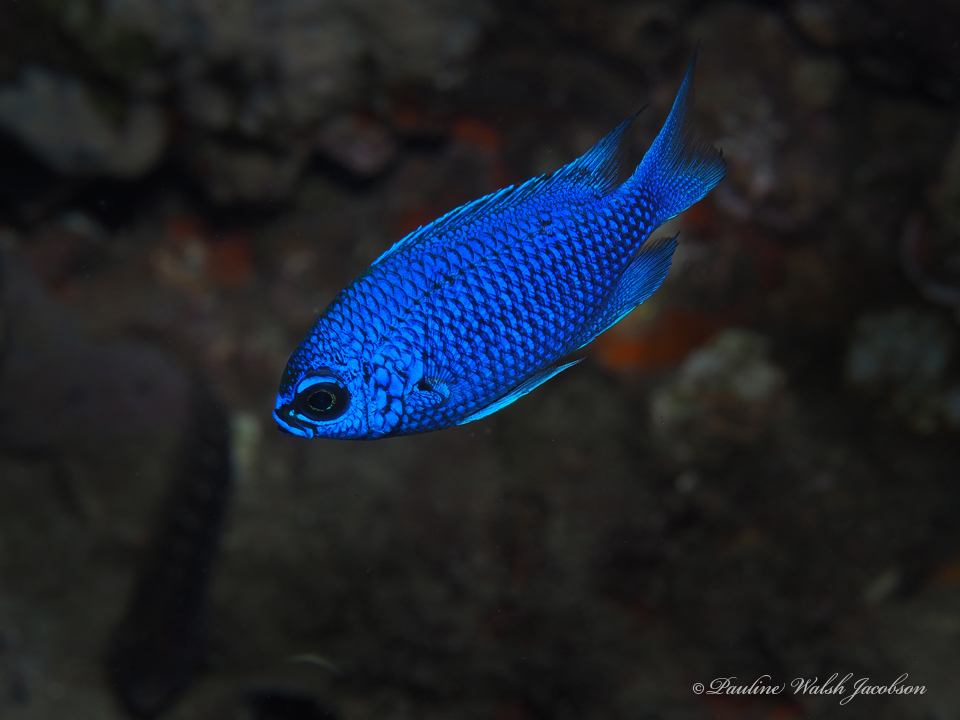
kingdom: Animalia
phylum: Chordata
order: Perciformes
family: Pomacentridae
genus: Chromis
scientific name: Chromis scotti
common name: Purple reeffish
